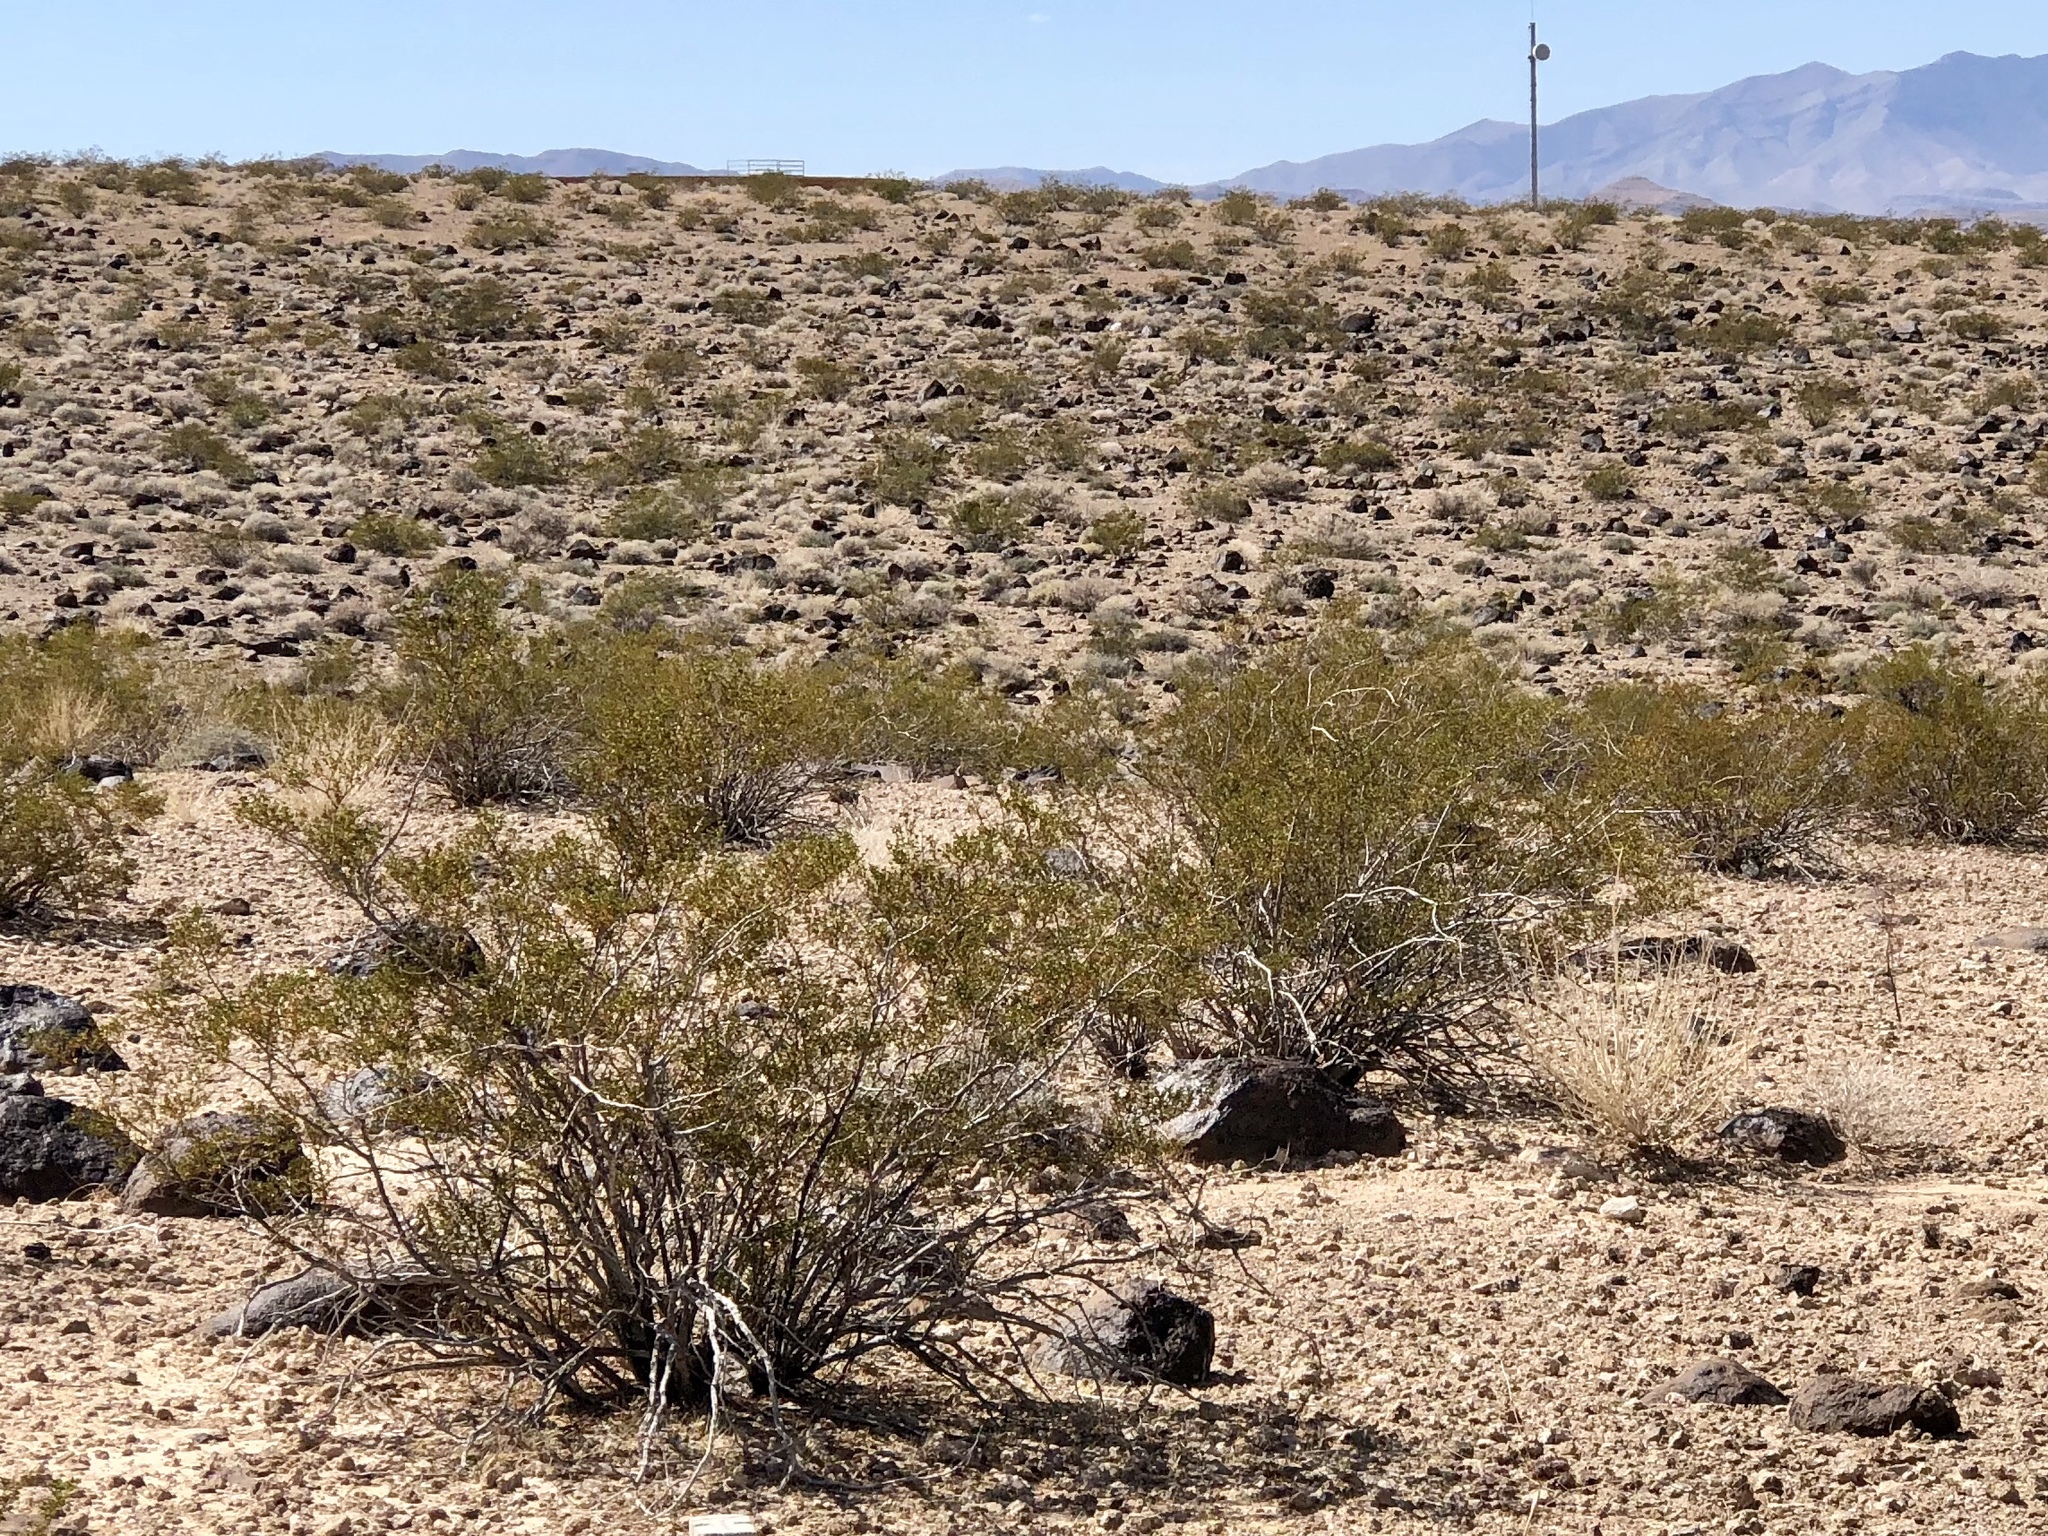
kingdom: Plantae
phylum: Tracheophyta
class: Magnoliopsida
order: Zygophyllales
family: Zygophyllaceae
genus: Larrea
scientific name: Larrea tridentata
